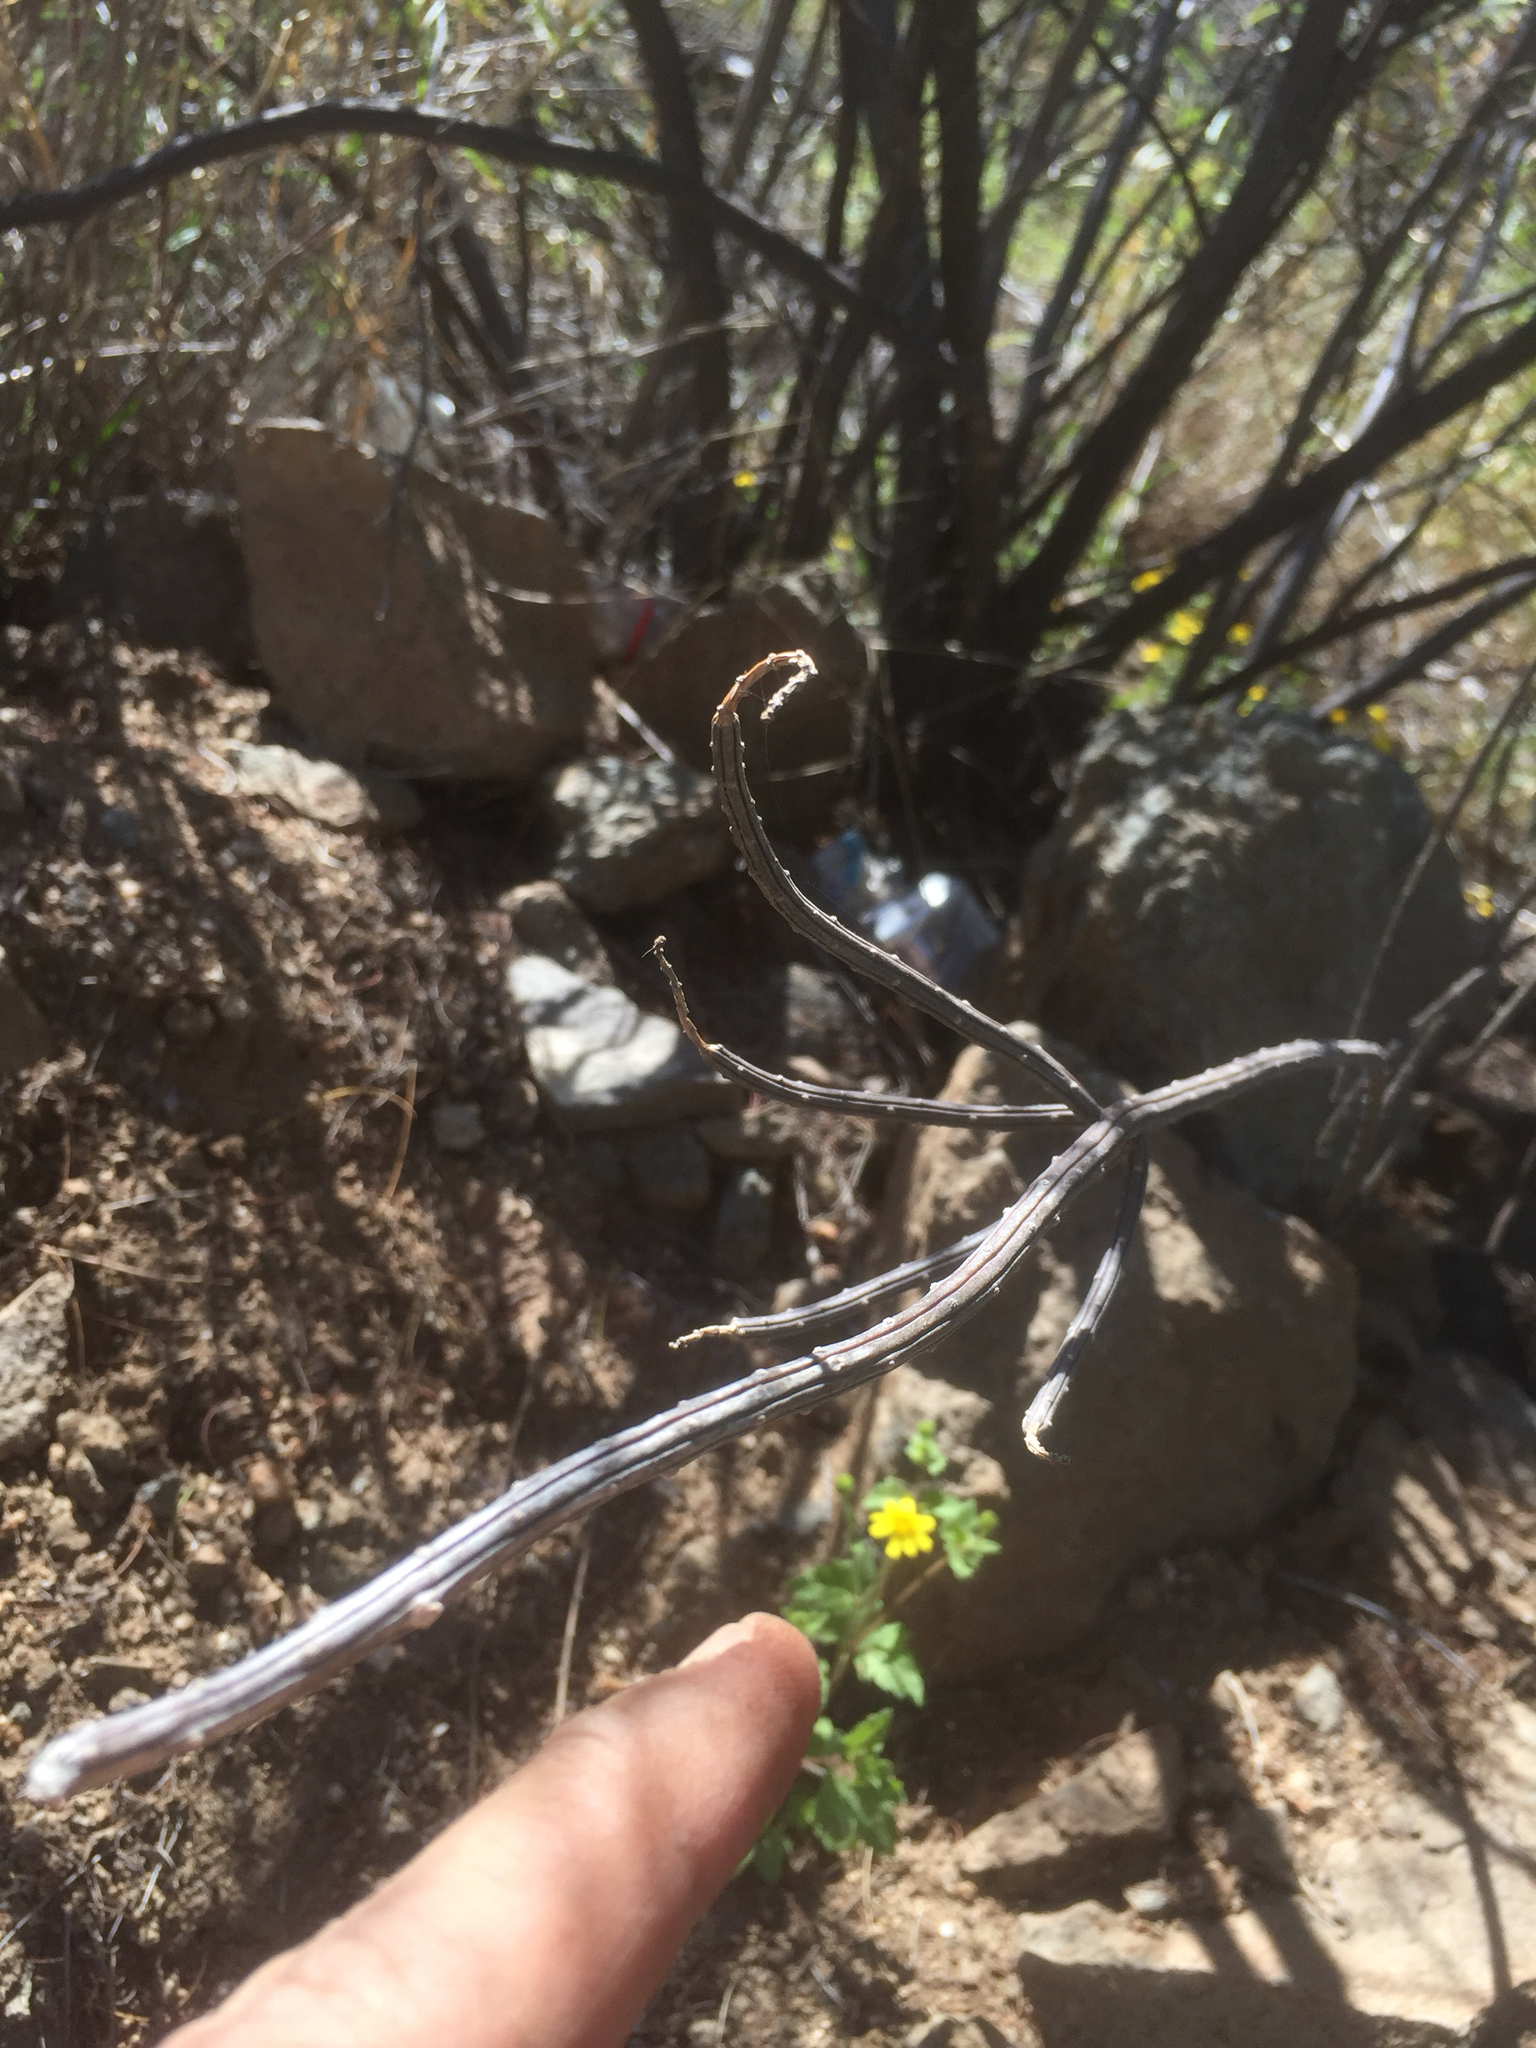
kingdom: Plantae
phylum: Tracheophyta
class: Magnoliopsida
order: Caryophyllales
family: Cactaceae
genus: Peniocereus
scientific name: Peniocereus striatus
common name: Gearstem cactus
